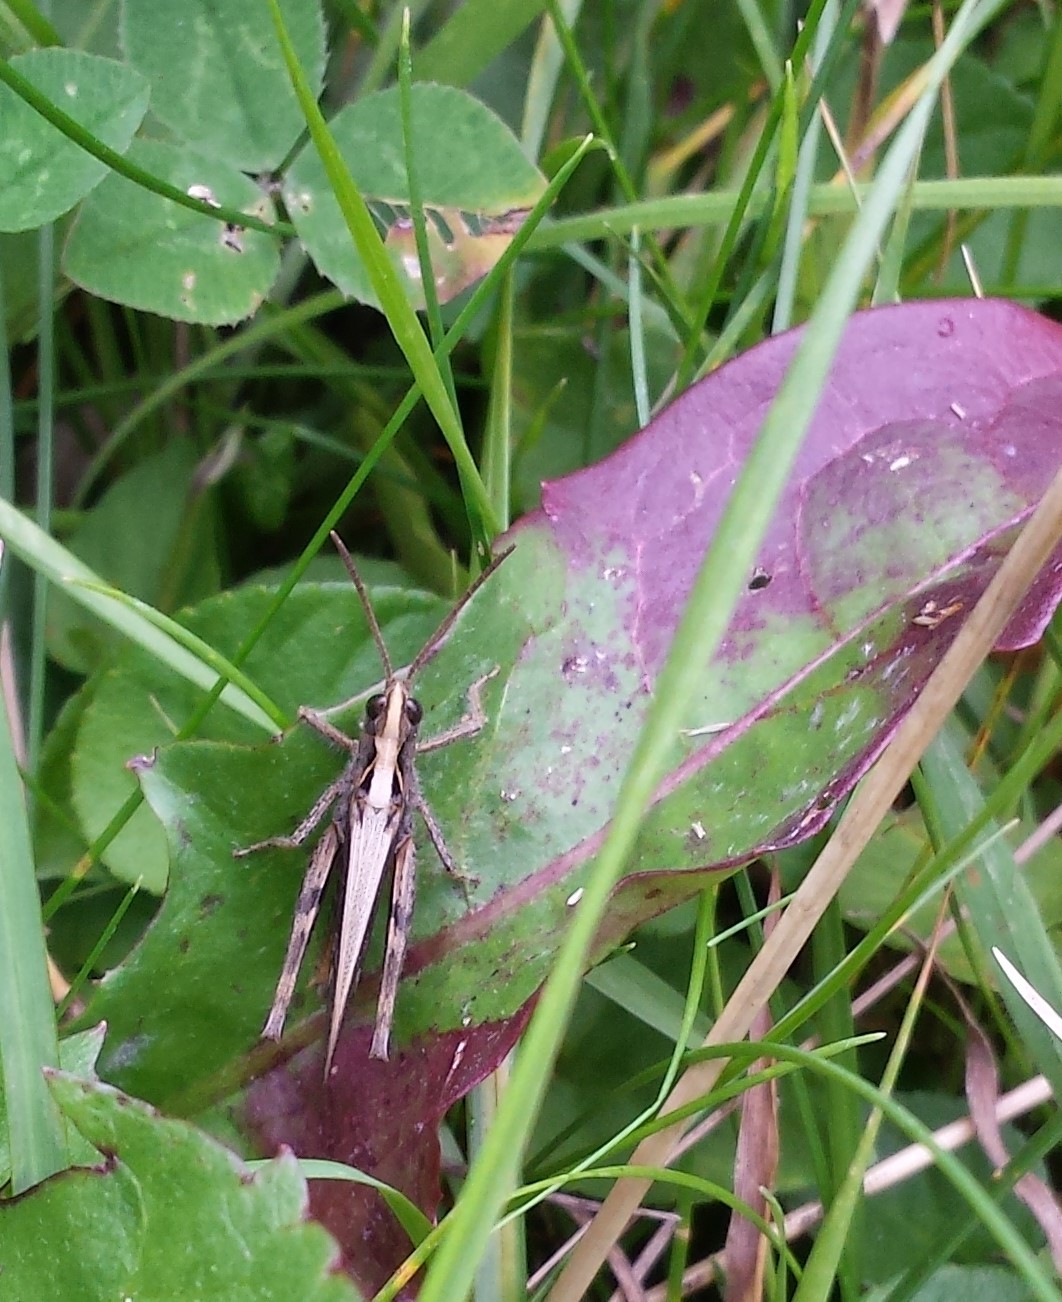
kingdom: Animalia
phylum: Arthropoda
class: Insecta
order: Orthoptera
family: Acrididae
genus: Chorthippus
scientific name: Chorthippus brunneus
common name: Field grasshopper
